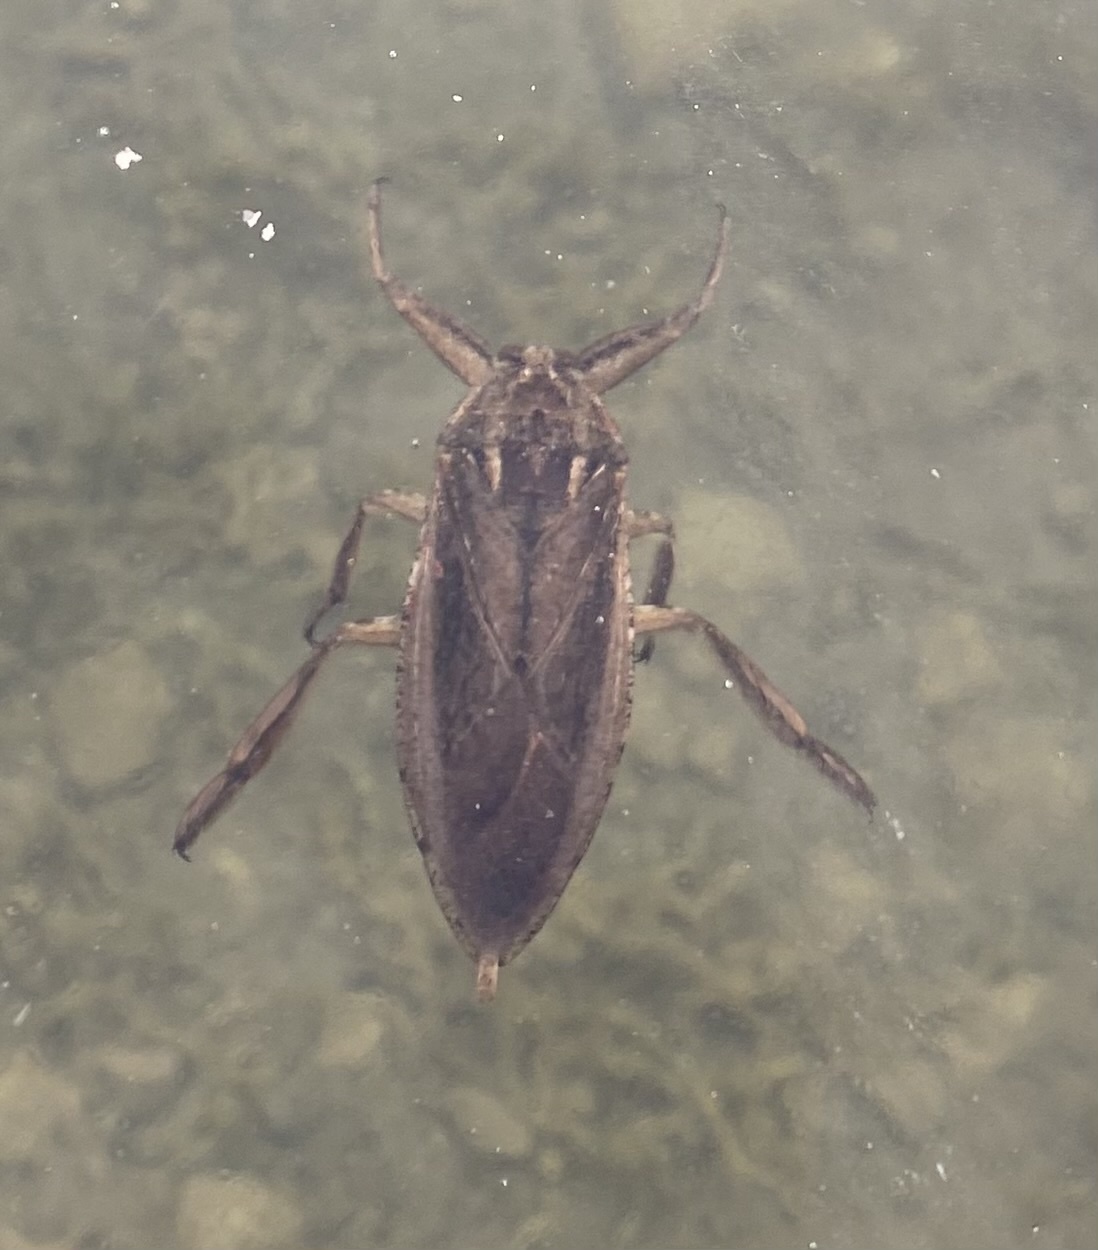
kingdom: Animalia
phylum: Arthropoda
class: Insecta
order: Hemiptera
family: Belostomatidae
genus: Lethocerus
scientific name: Lethocerus americanus
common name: Giant water bug
